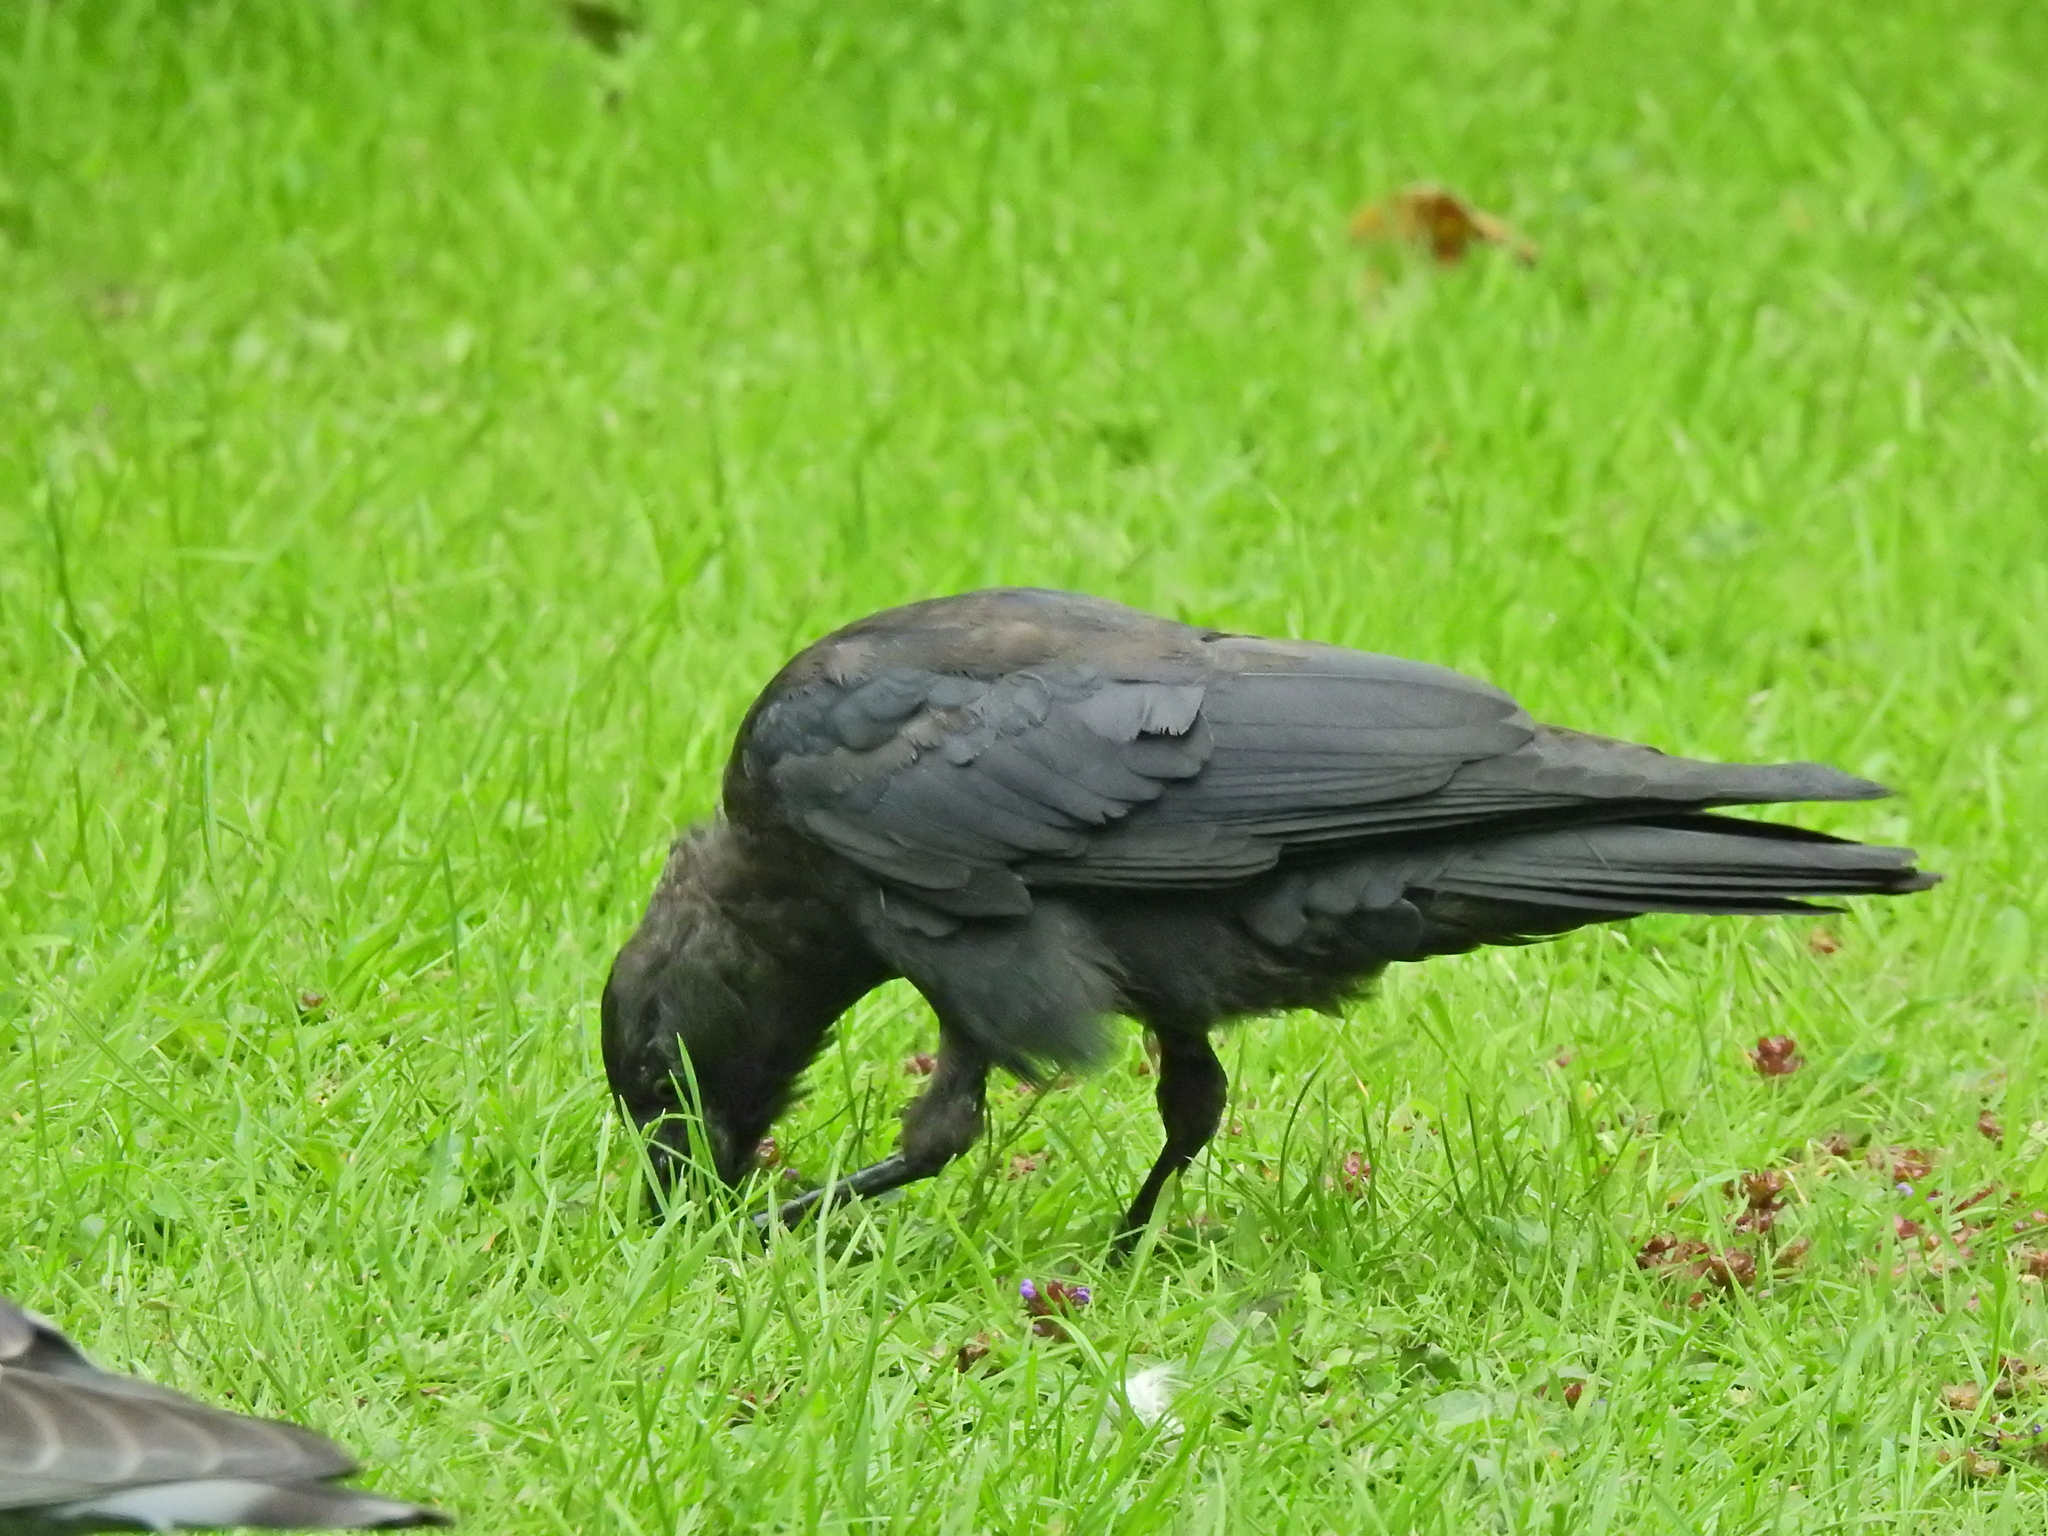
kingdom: Animalia
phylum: Chordata
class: Aves
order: Passeriformes
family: Corvidae
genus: Coloeus
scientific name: Coloeus monedula
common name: Western jackdaw
